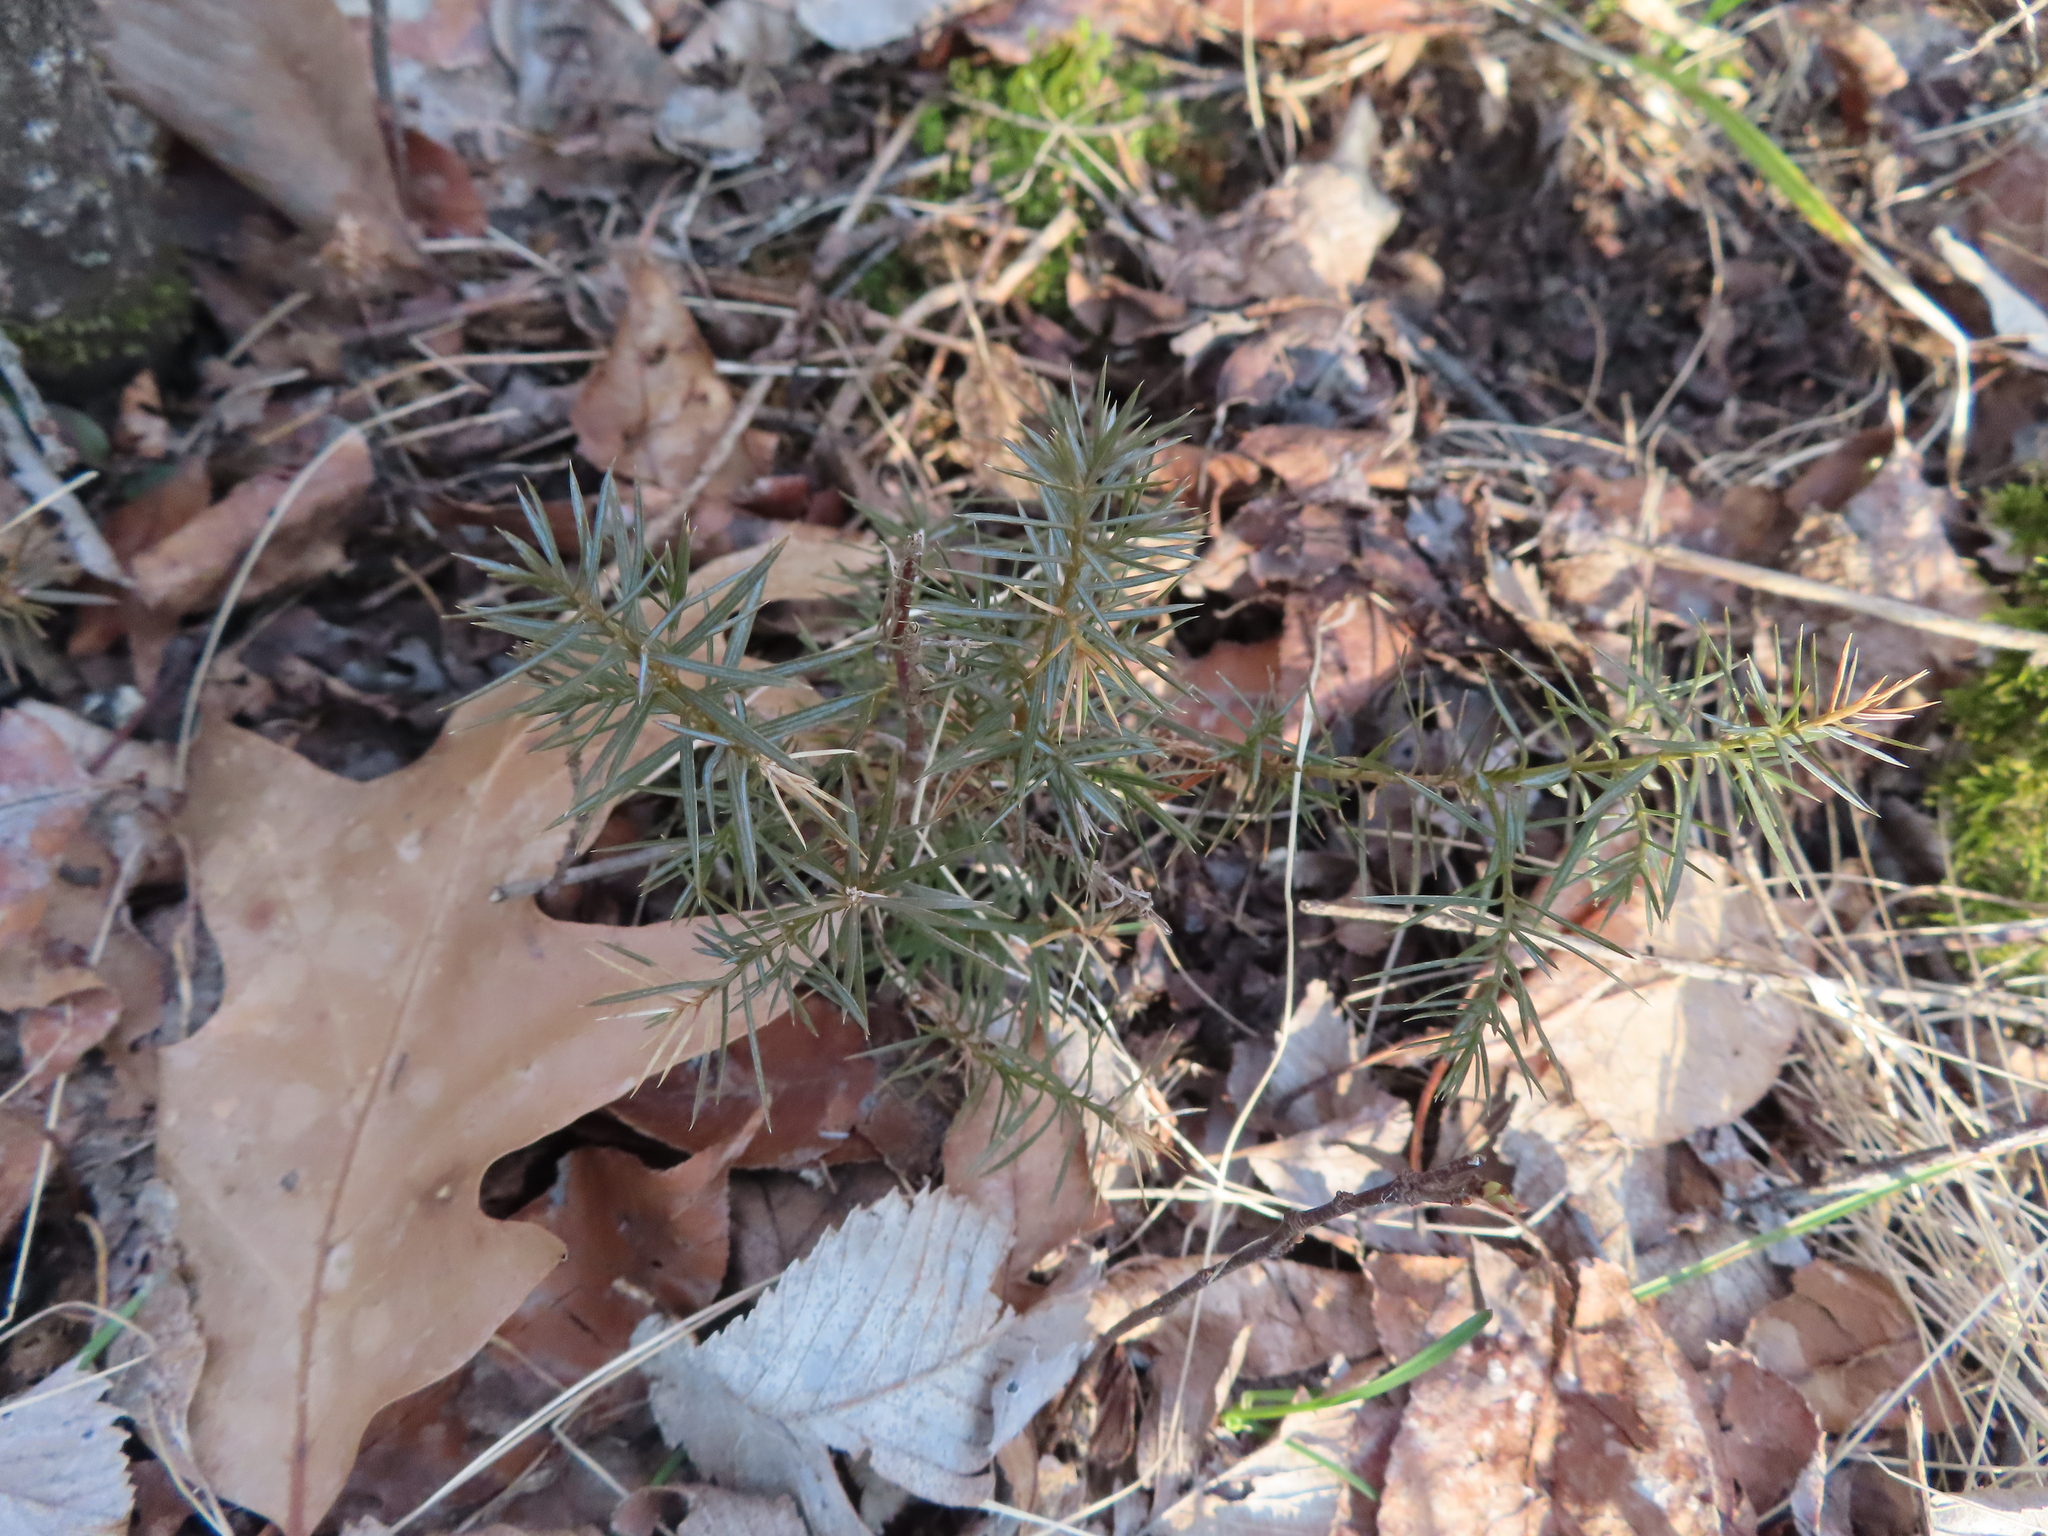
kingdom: Plantae
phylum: Tracheophyta
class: Pinopsida
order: Pinales
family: Cupressaceae
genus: Juniperus
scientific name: Juniperus virginiana
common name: Red juniper
